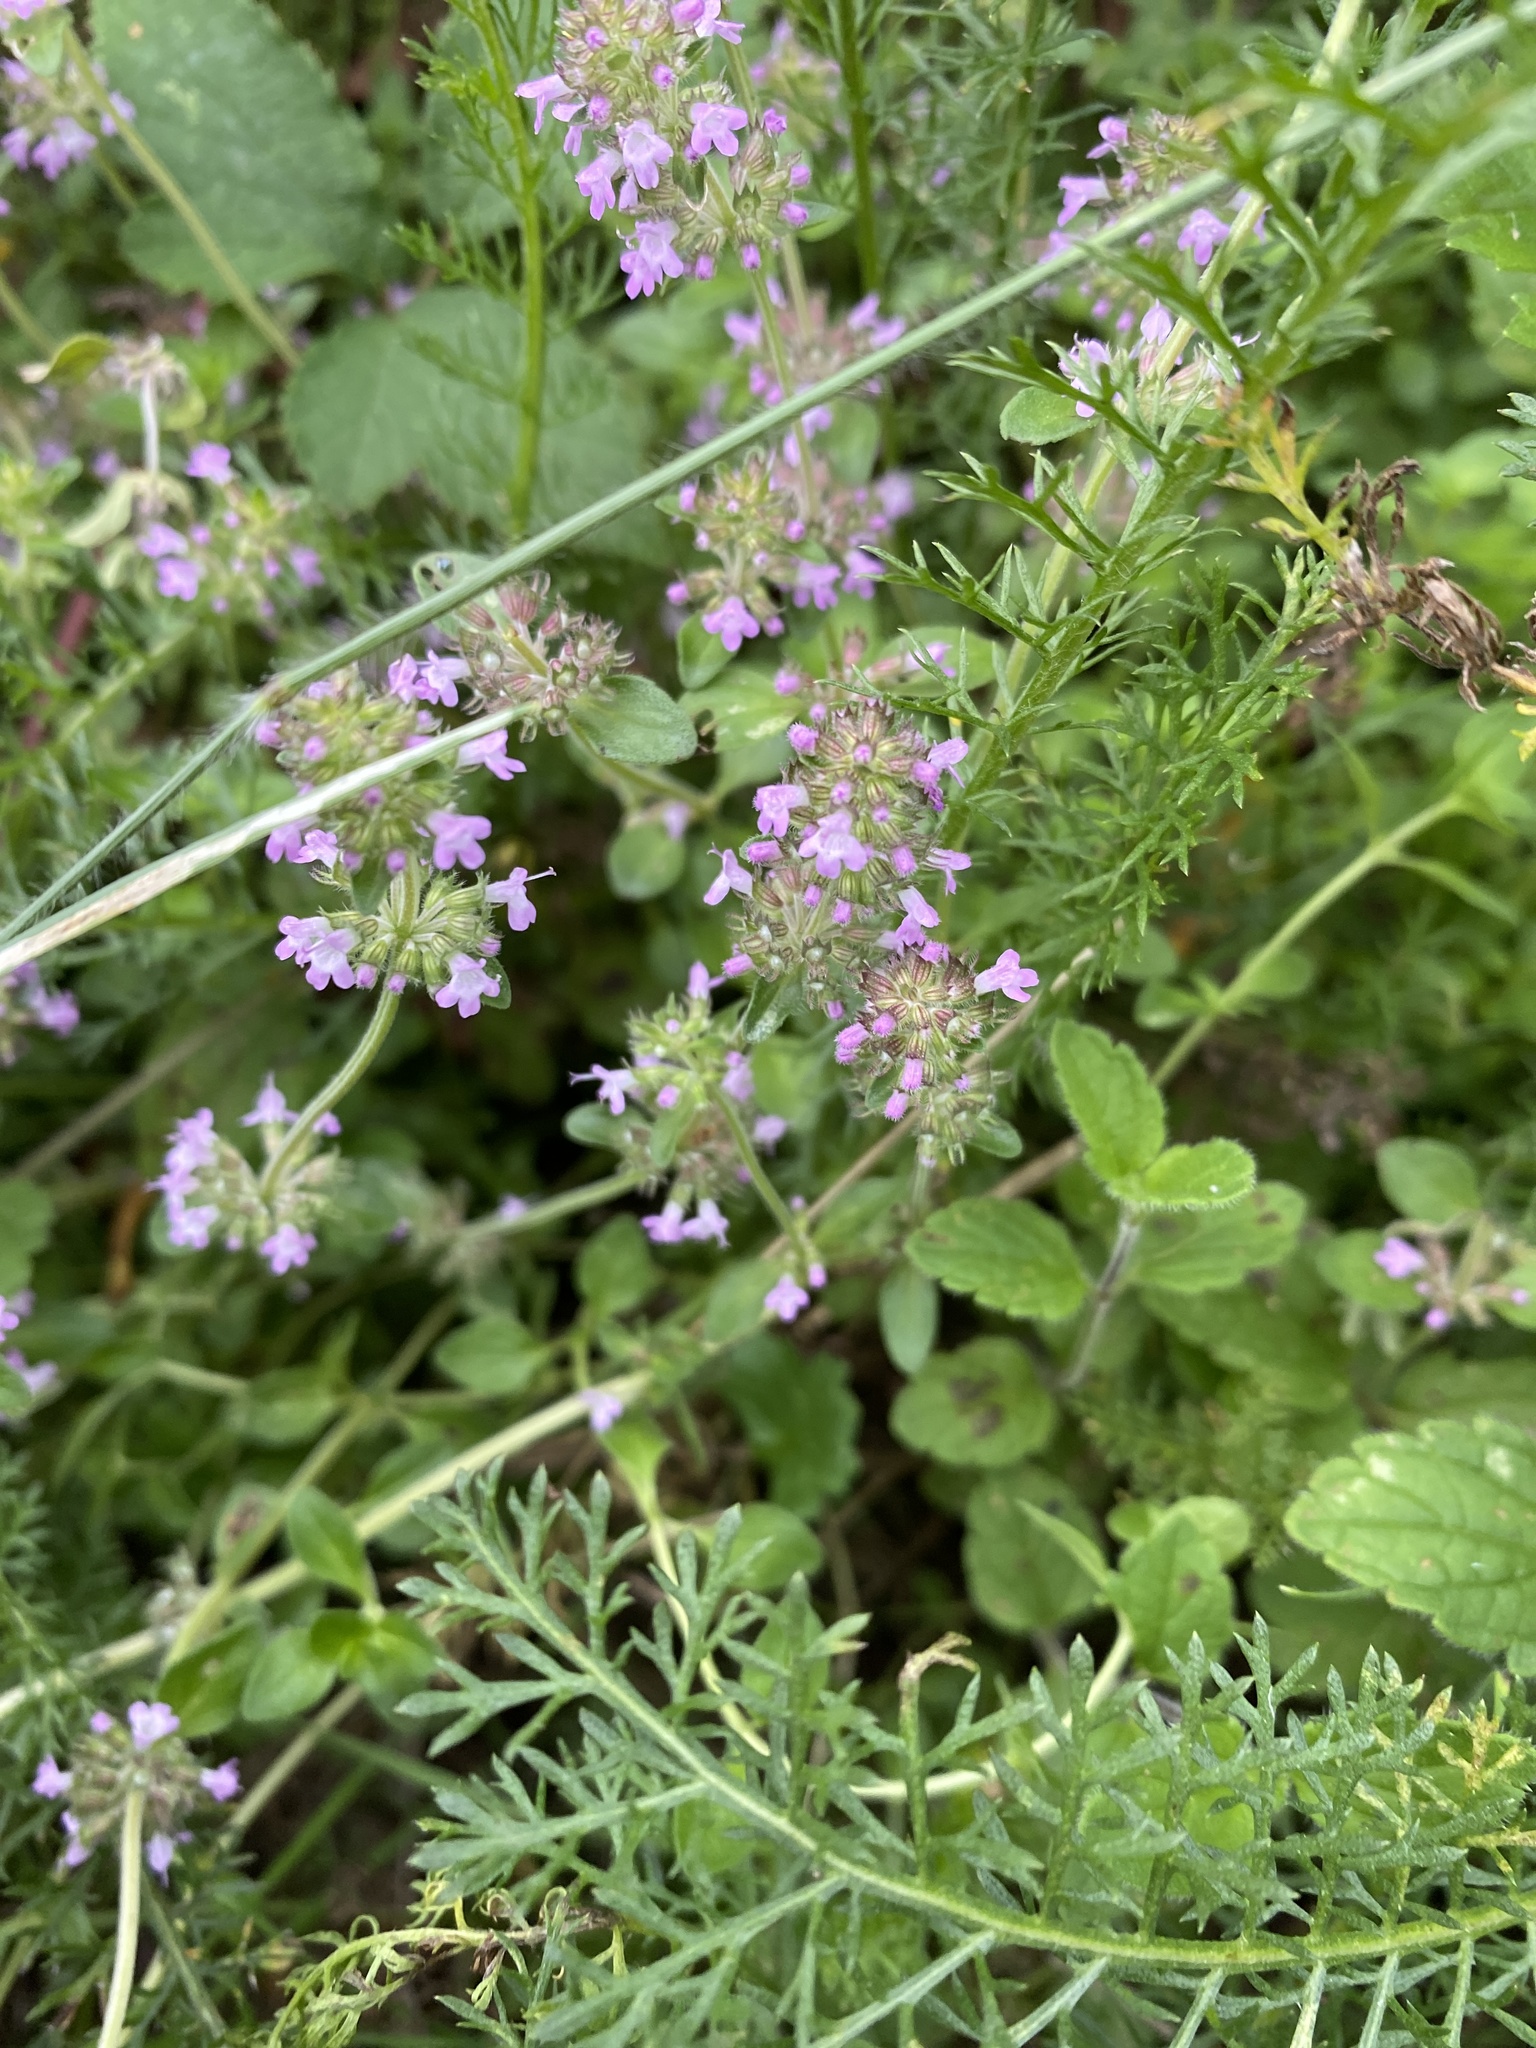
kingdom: Plantae
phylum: Tracheophyta
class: Magnoliopsida
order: Lamiales
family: Lamiaceae
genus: Thymus
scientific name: Thymus pulegioides
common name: Large thyme
